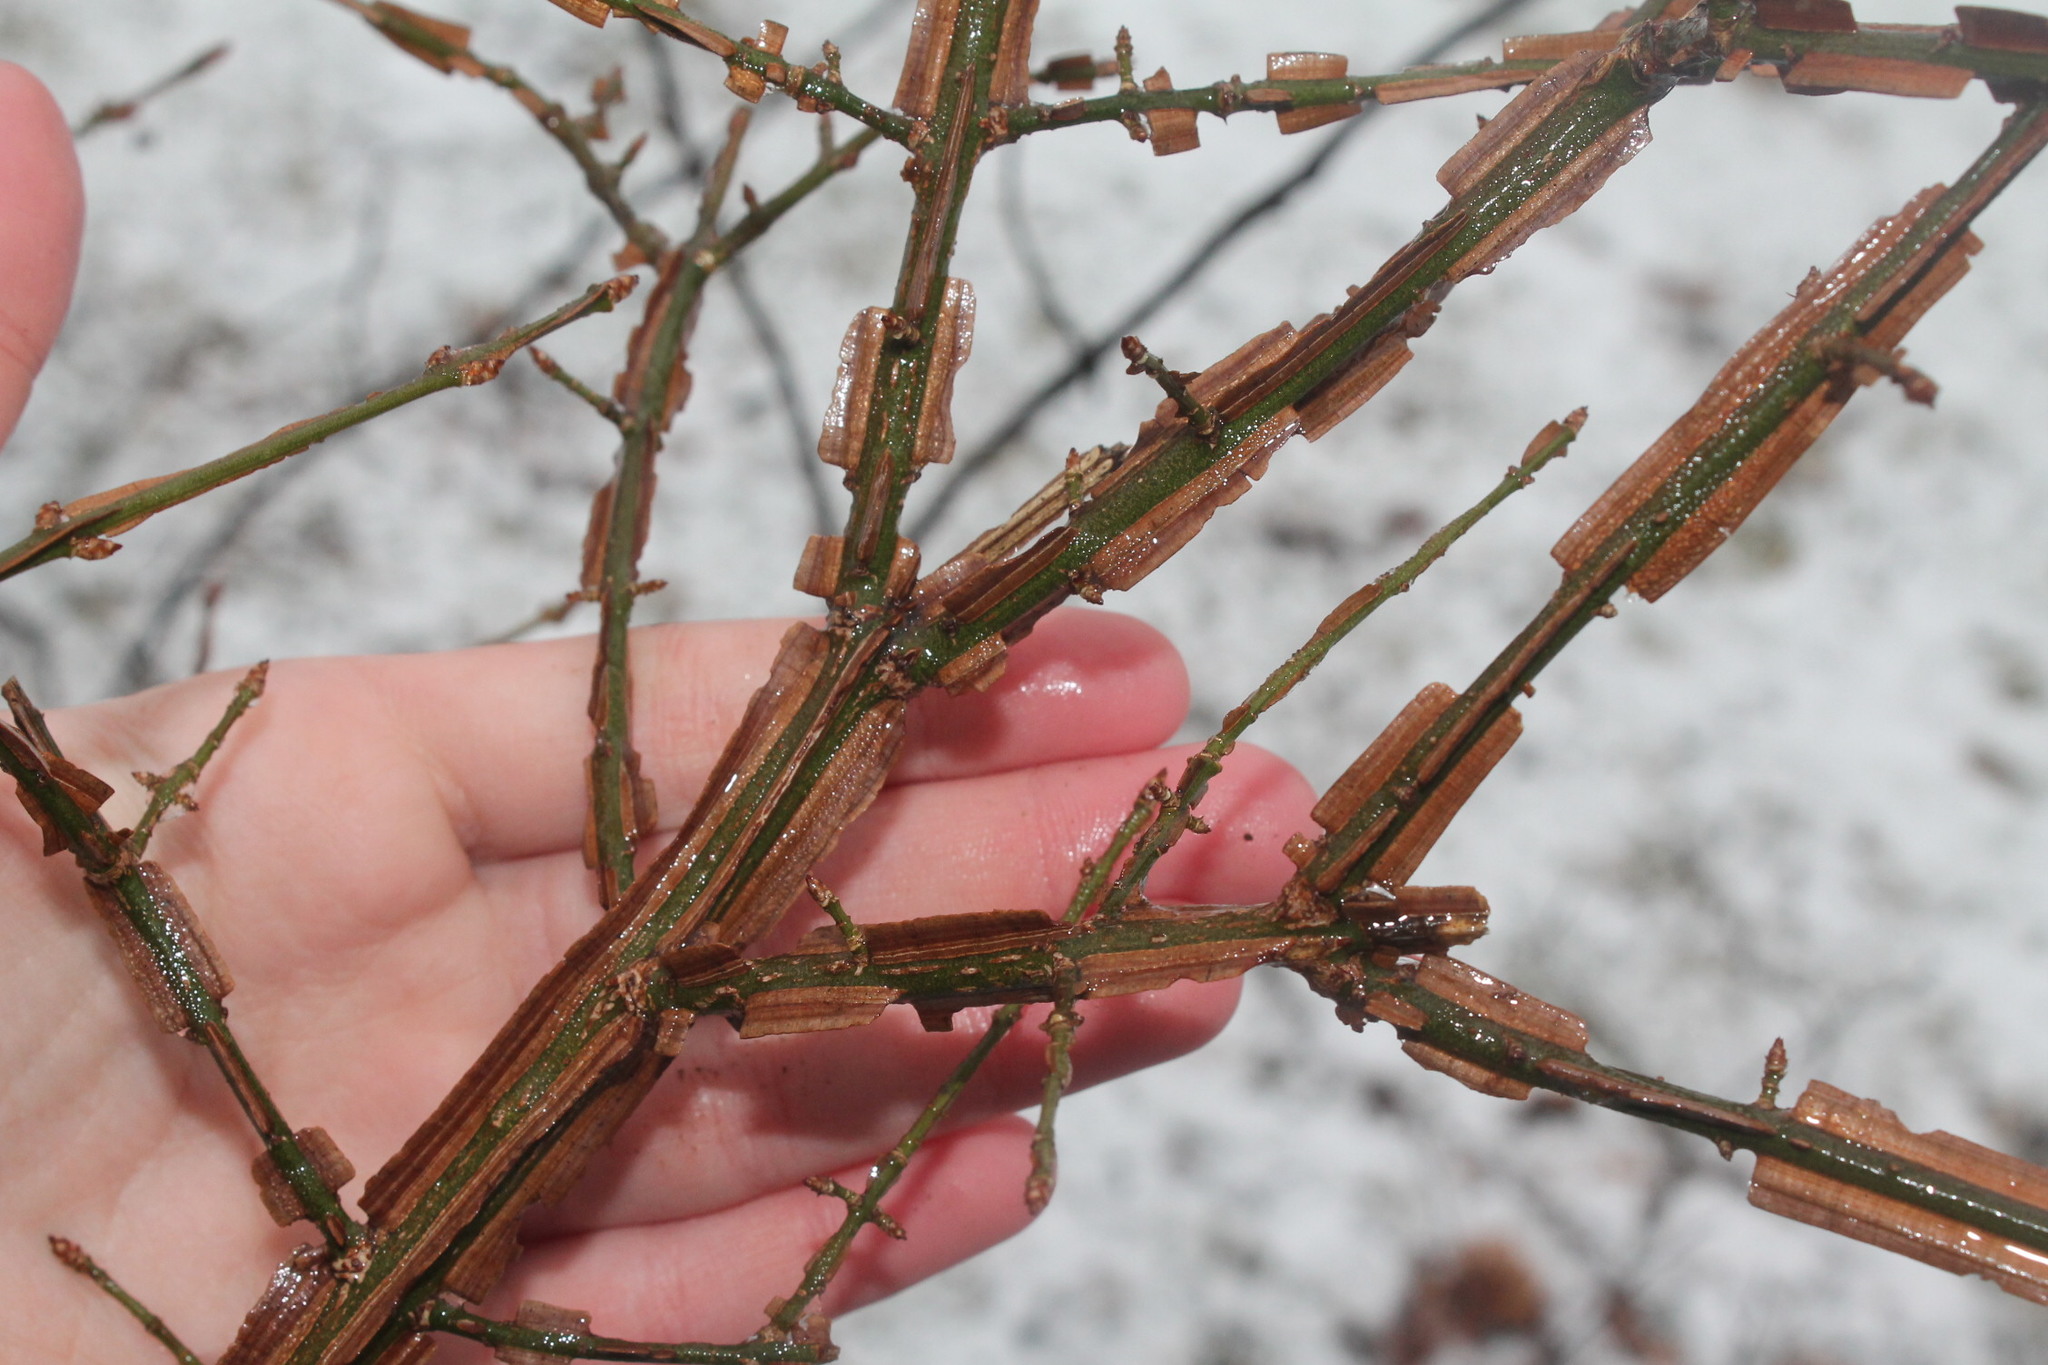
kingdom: Plantae
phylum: Tracheophyta
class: Magnoliopsida
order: Celastrales
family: Celastraceae
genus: Euonymus
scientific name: Euonymus alatus
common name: Winged euonymus
